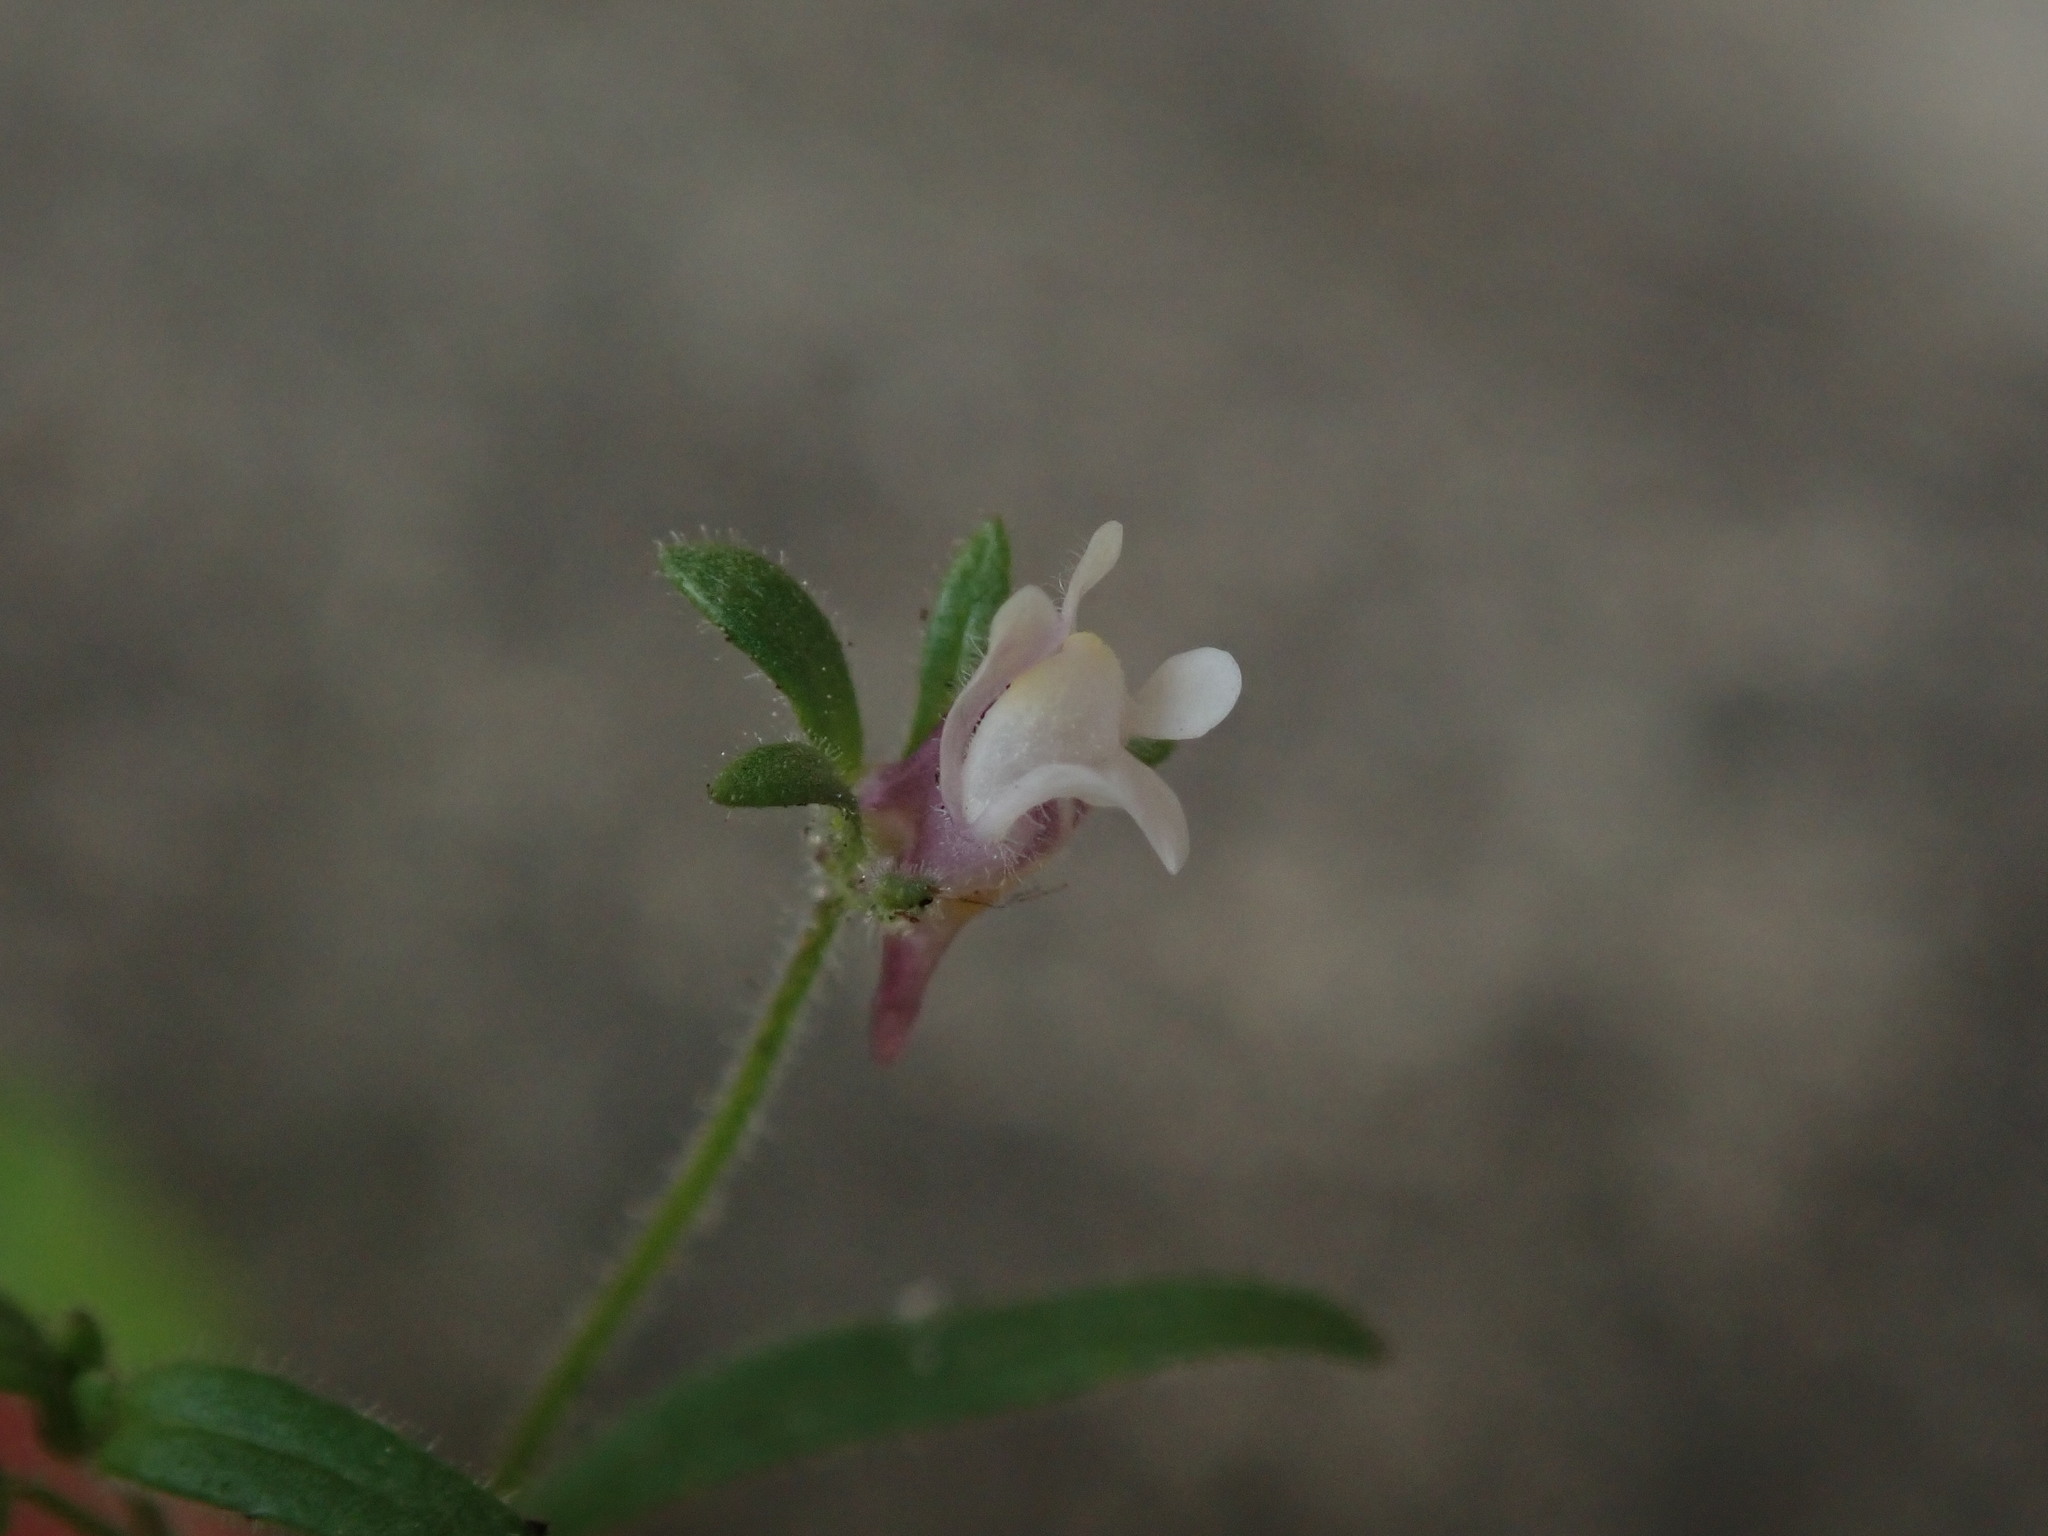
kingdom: Plantae
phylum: Tracheophyta
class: Magnoliopsida
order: Lamiales
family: Plantaginaceae
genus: Chaenorhinum
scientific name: Chaenorhinum minus
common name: Dwarf snapdragon
